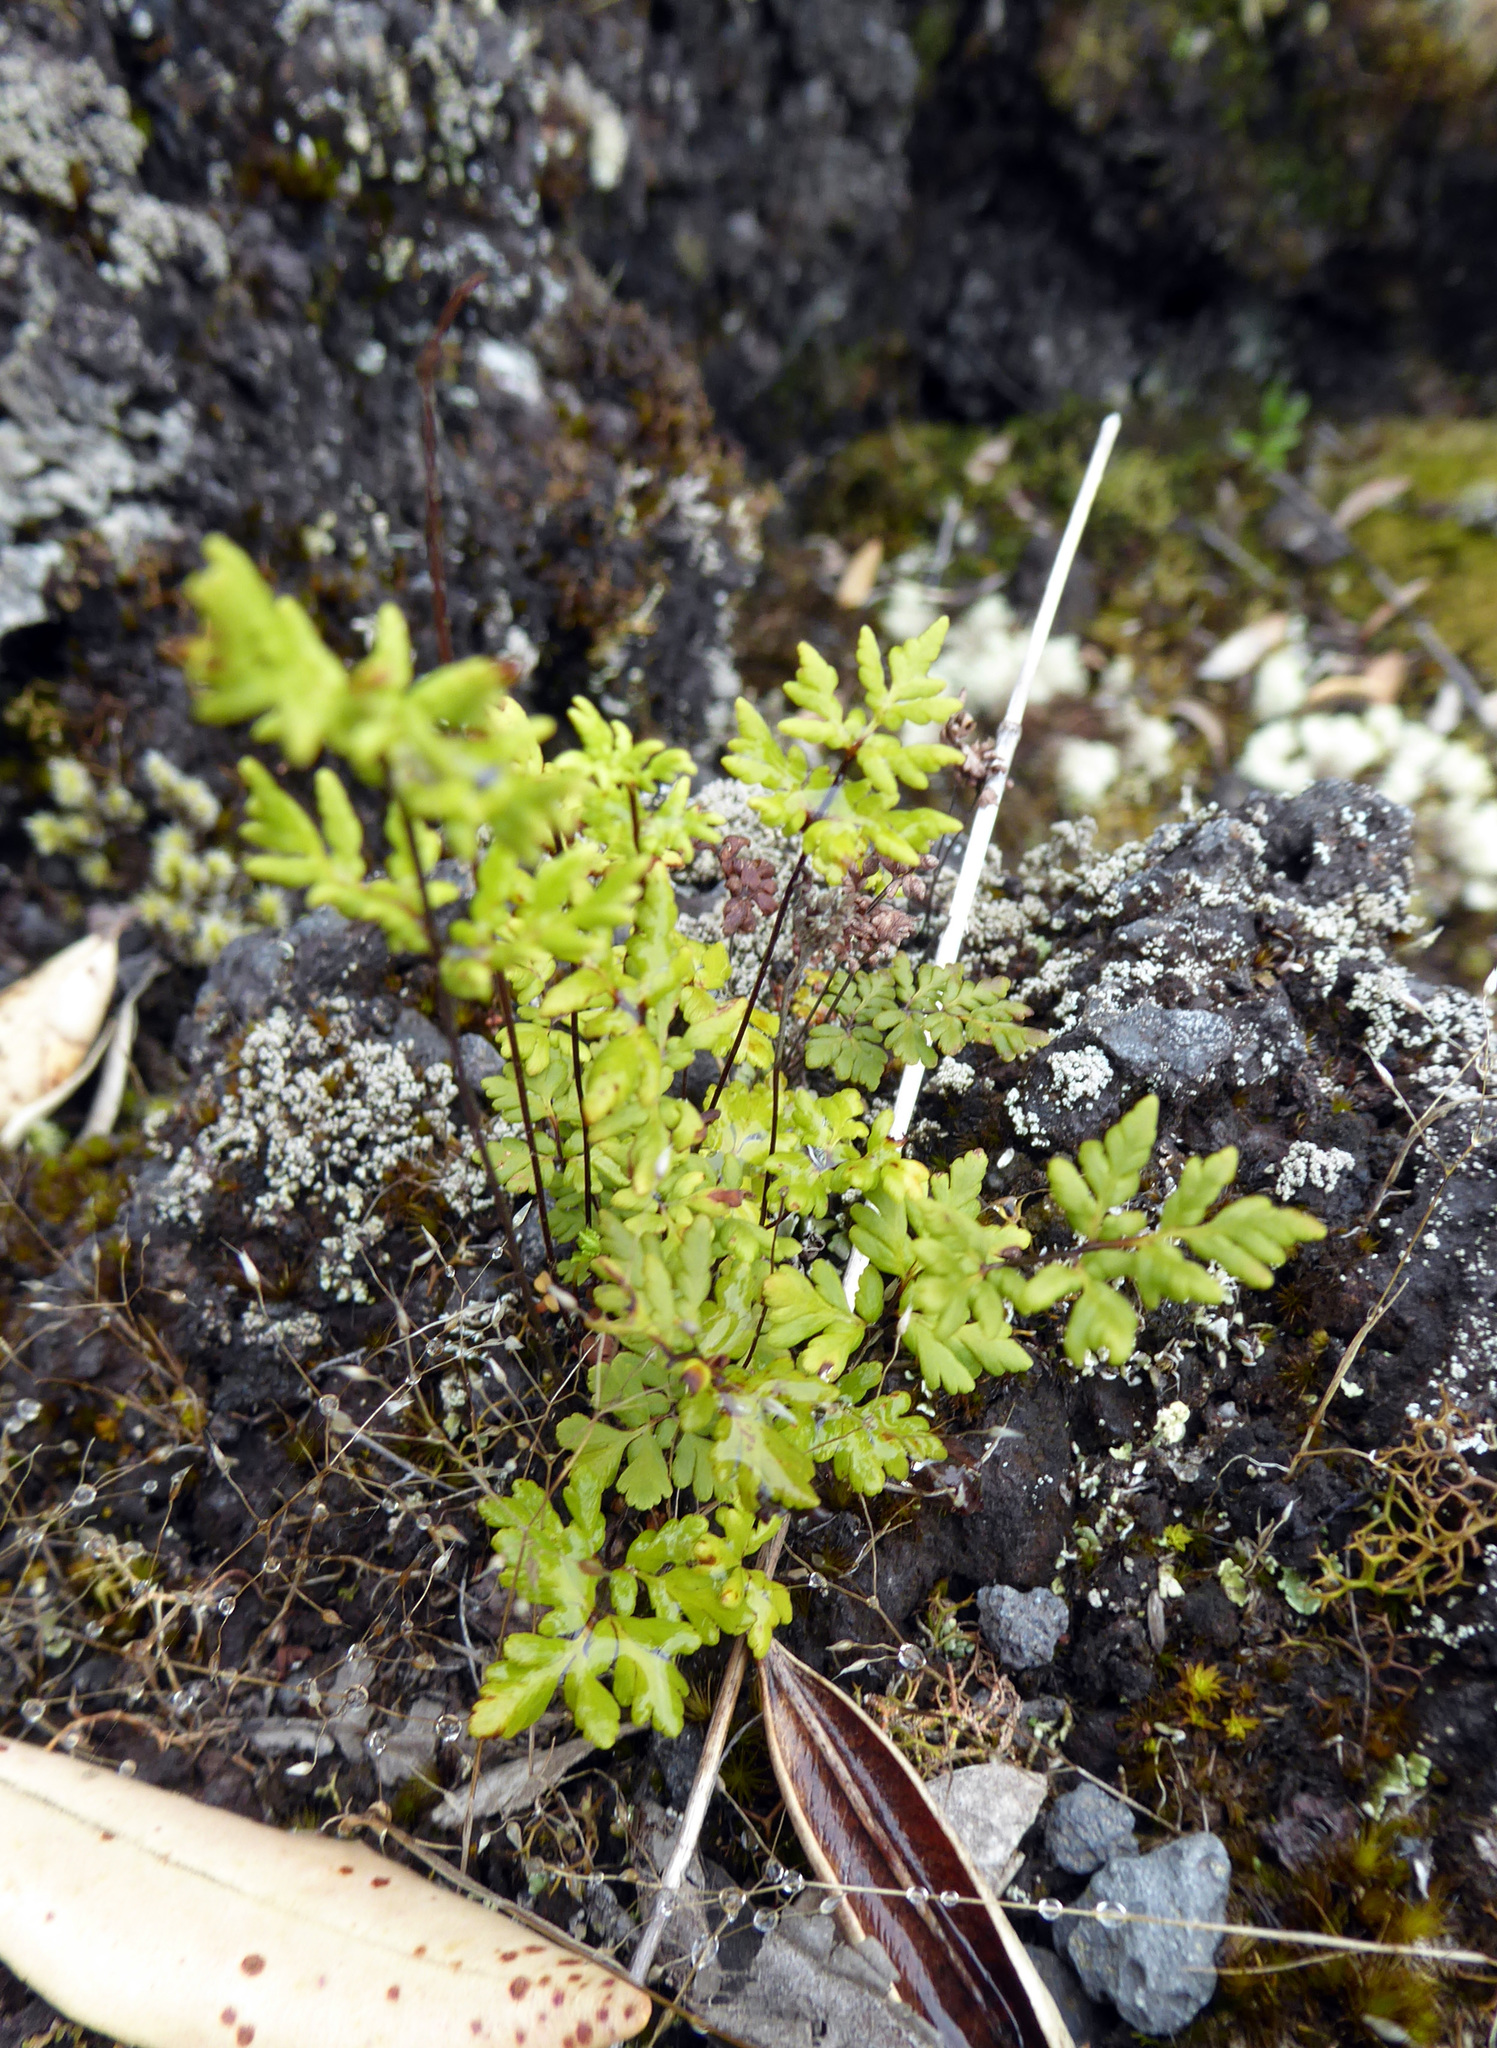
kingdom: Plantae
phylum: Tracheophyta
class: Polypodiopsida
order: Polypodiales
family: Pteridaceae
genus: Cheilanthes
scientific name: Cheilanthes sieberi
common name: Mulga fern
